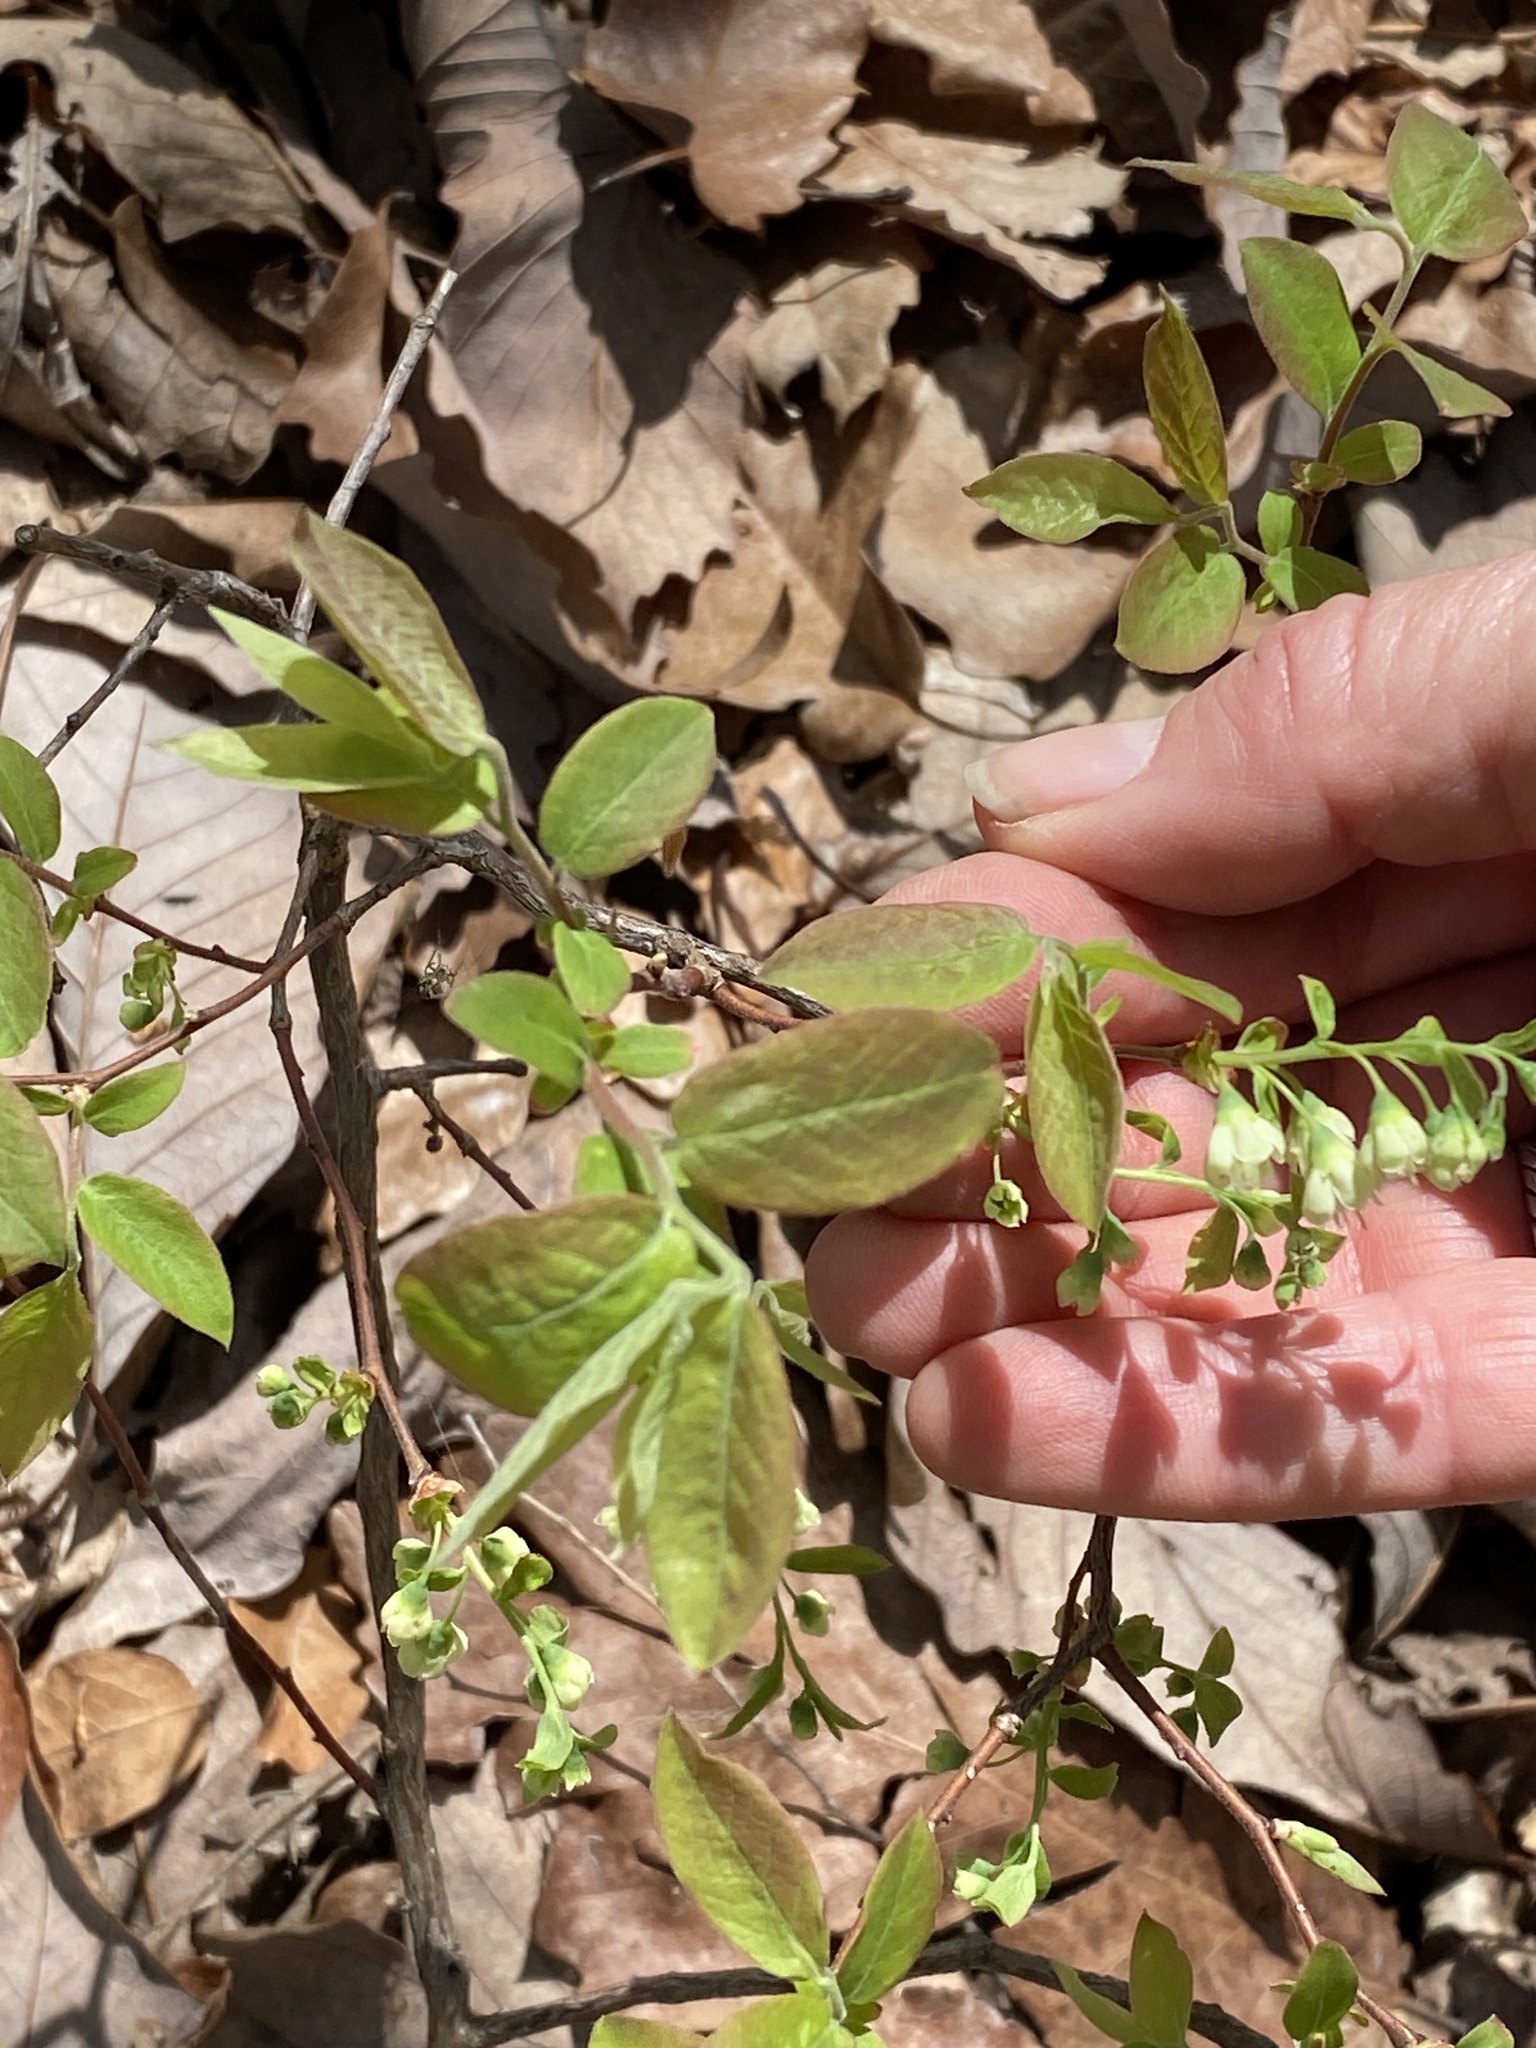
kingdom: Plantae
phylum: Tracheophyta
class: Magnoliopsida
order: Ericales
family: Ericaceae
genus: Vaccinium
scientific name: Vaccinium stamineum
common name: Deerberry
